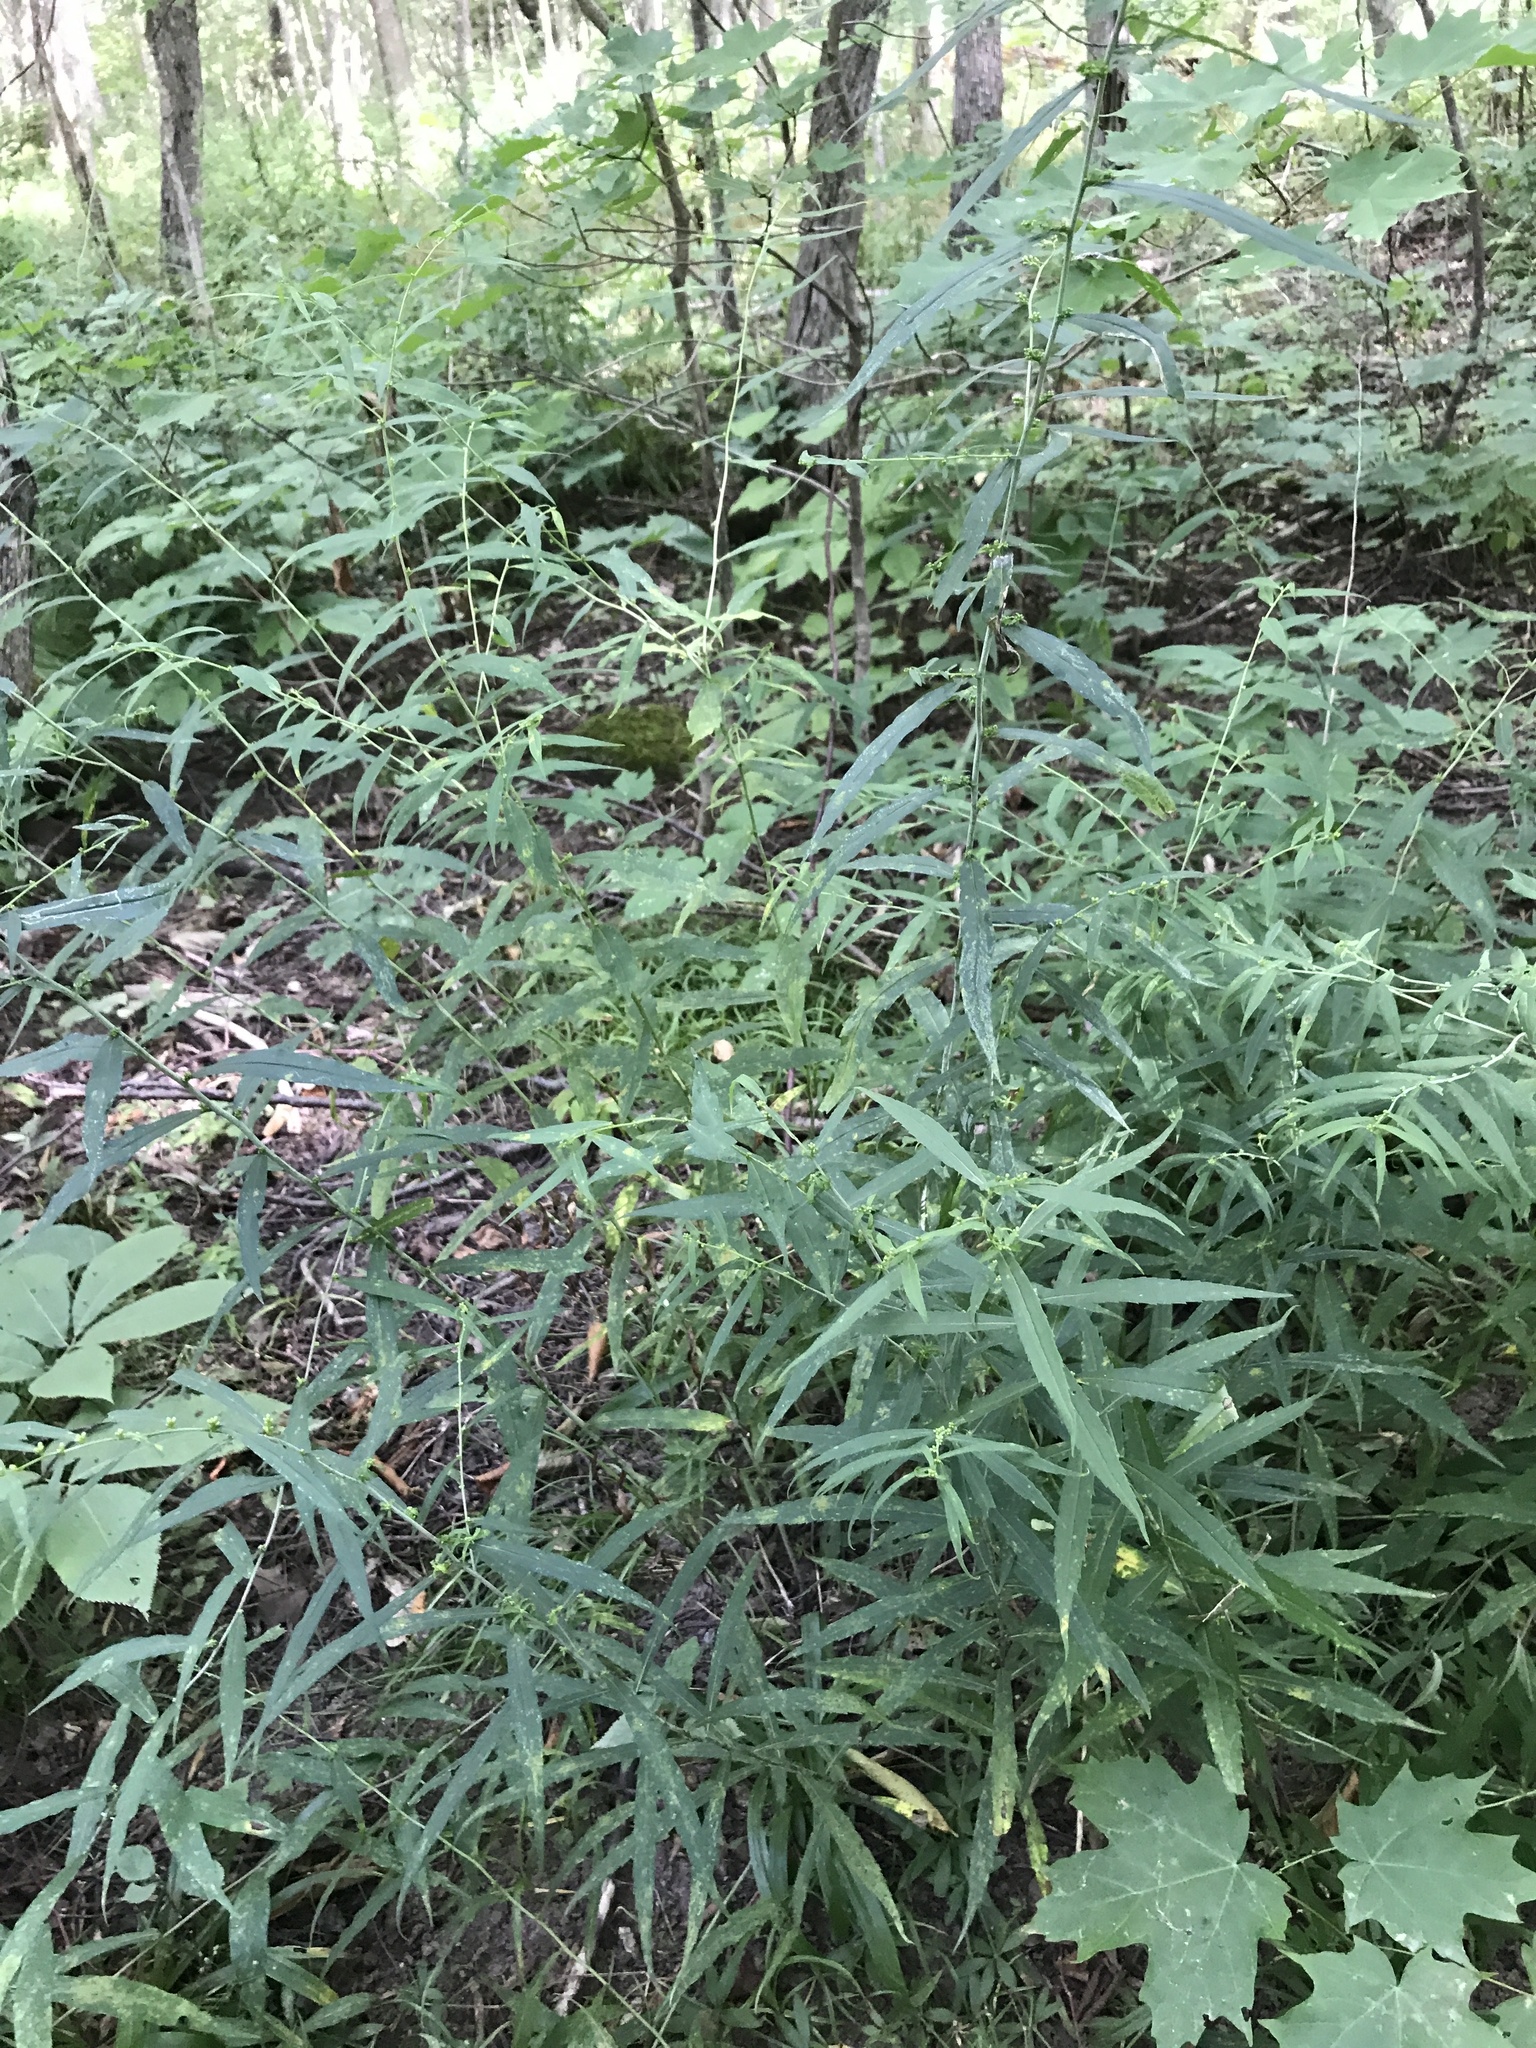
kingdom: Plantae
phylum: Tracheophyta
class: Magnoliopsida
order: Asterales
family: Asteraceae
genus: Solidago
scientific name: Solidago caesia
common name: Woodland goldenrod
